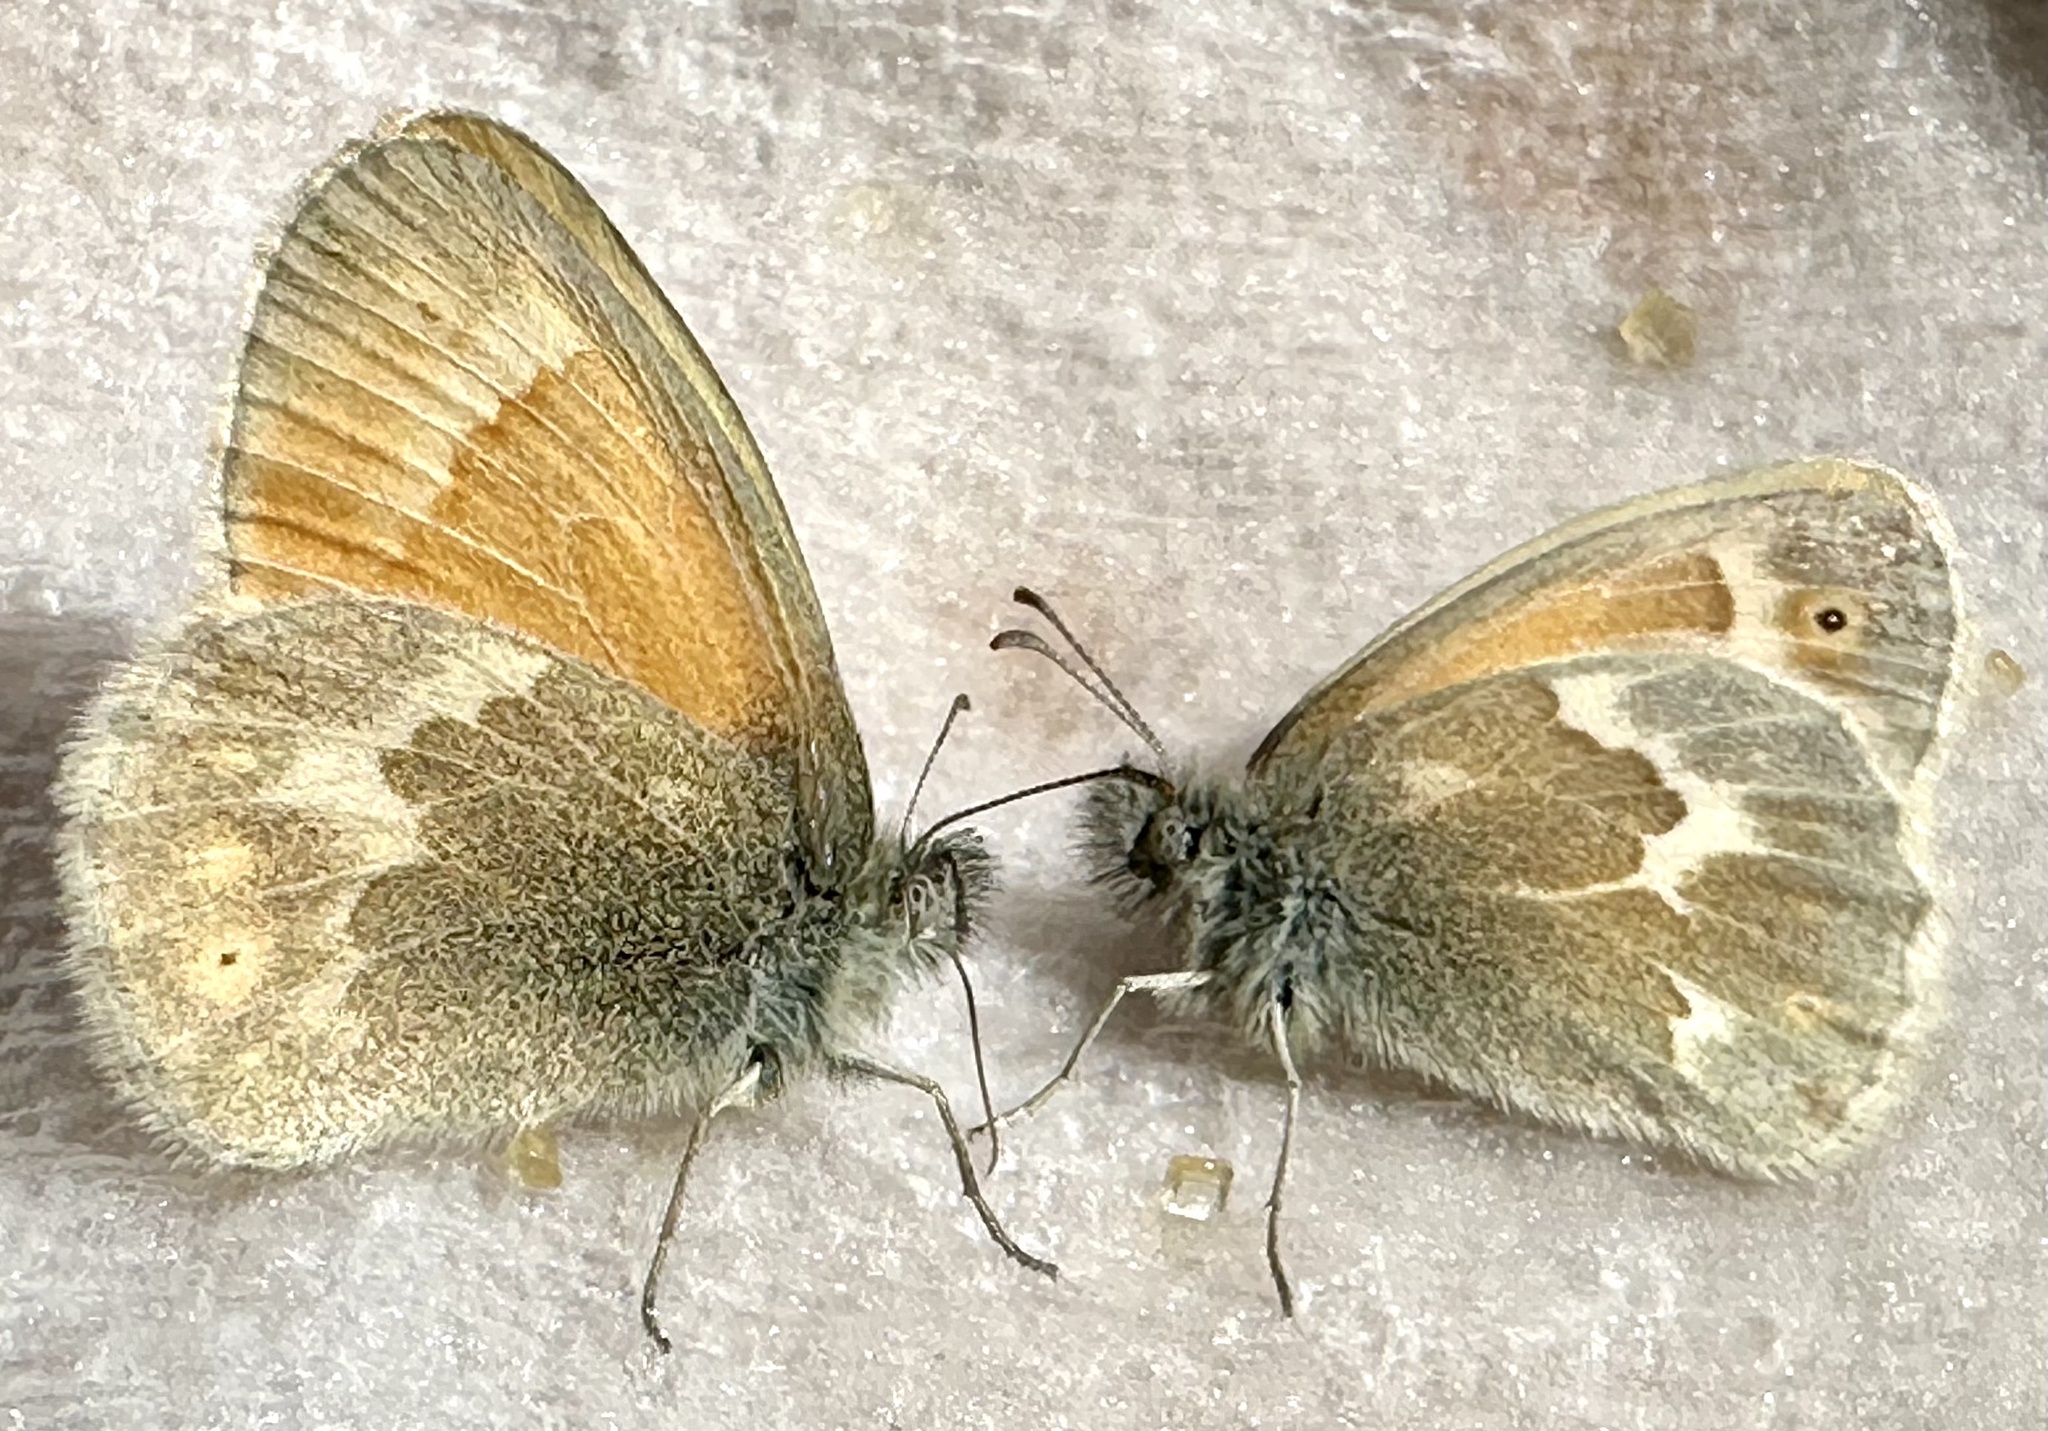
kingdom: Animalia
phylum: Arthropoda
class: Insecta
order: Lepidoptera
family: Nymphalidae
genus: Coenonympha
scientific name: Coenonympha california
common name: Common ringlet
